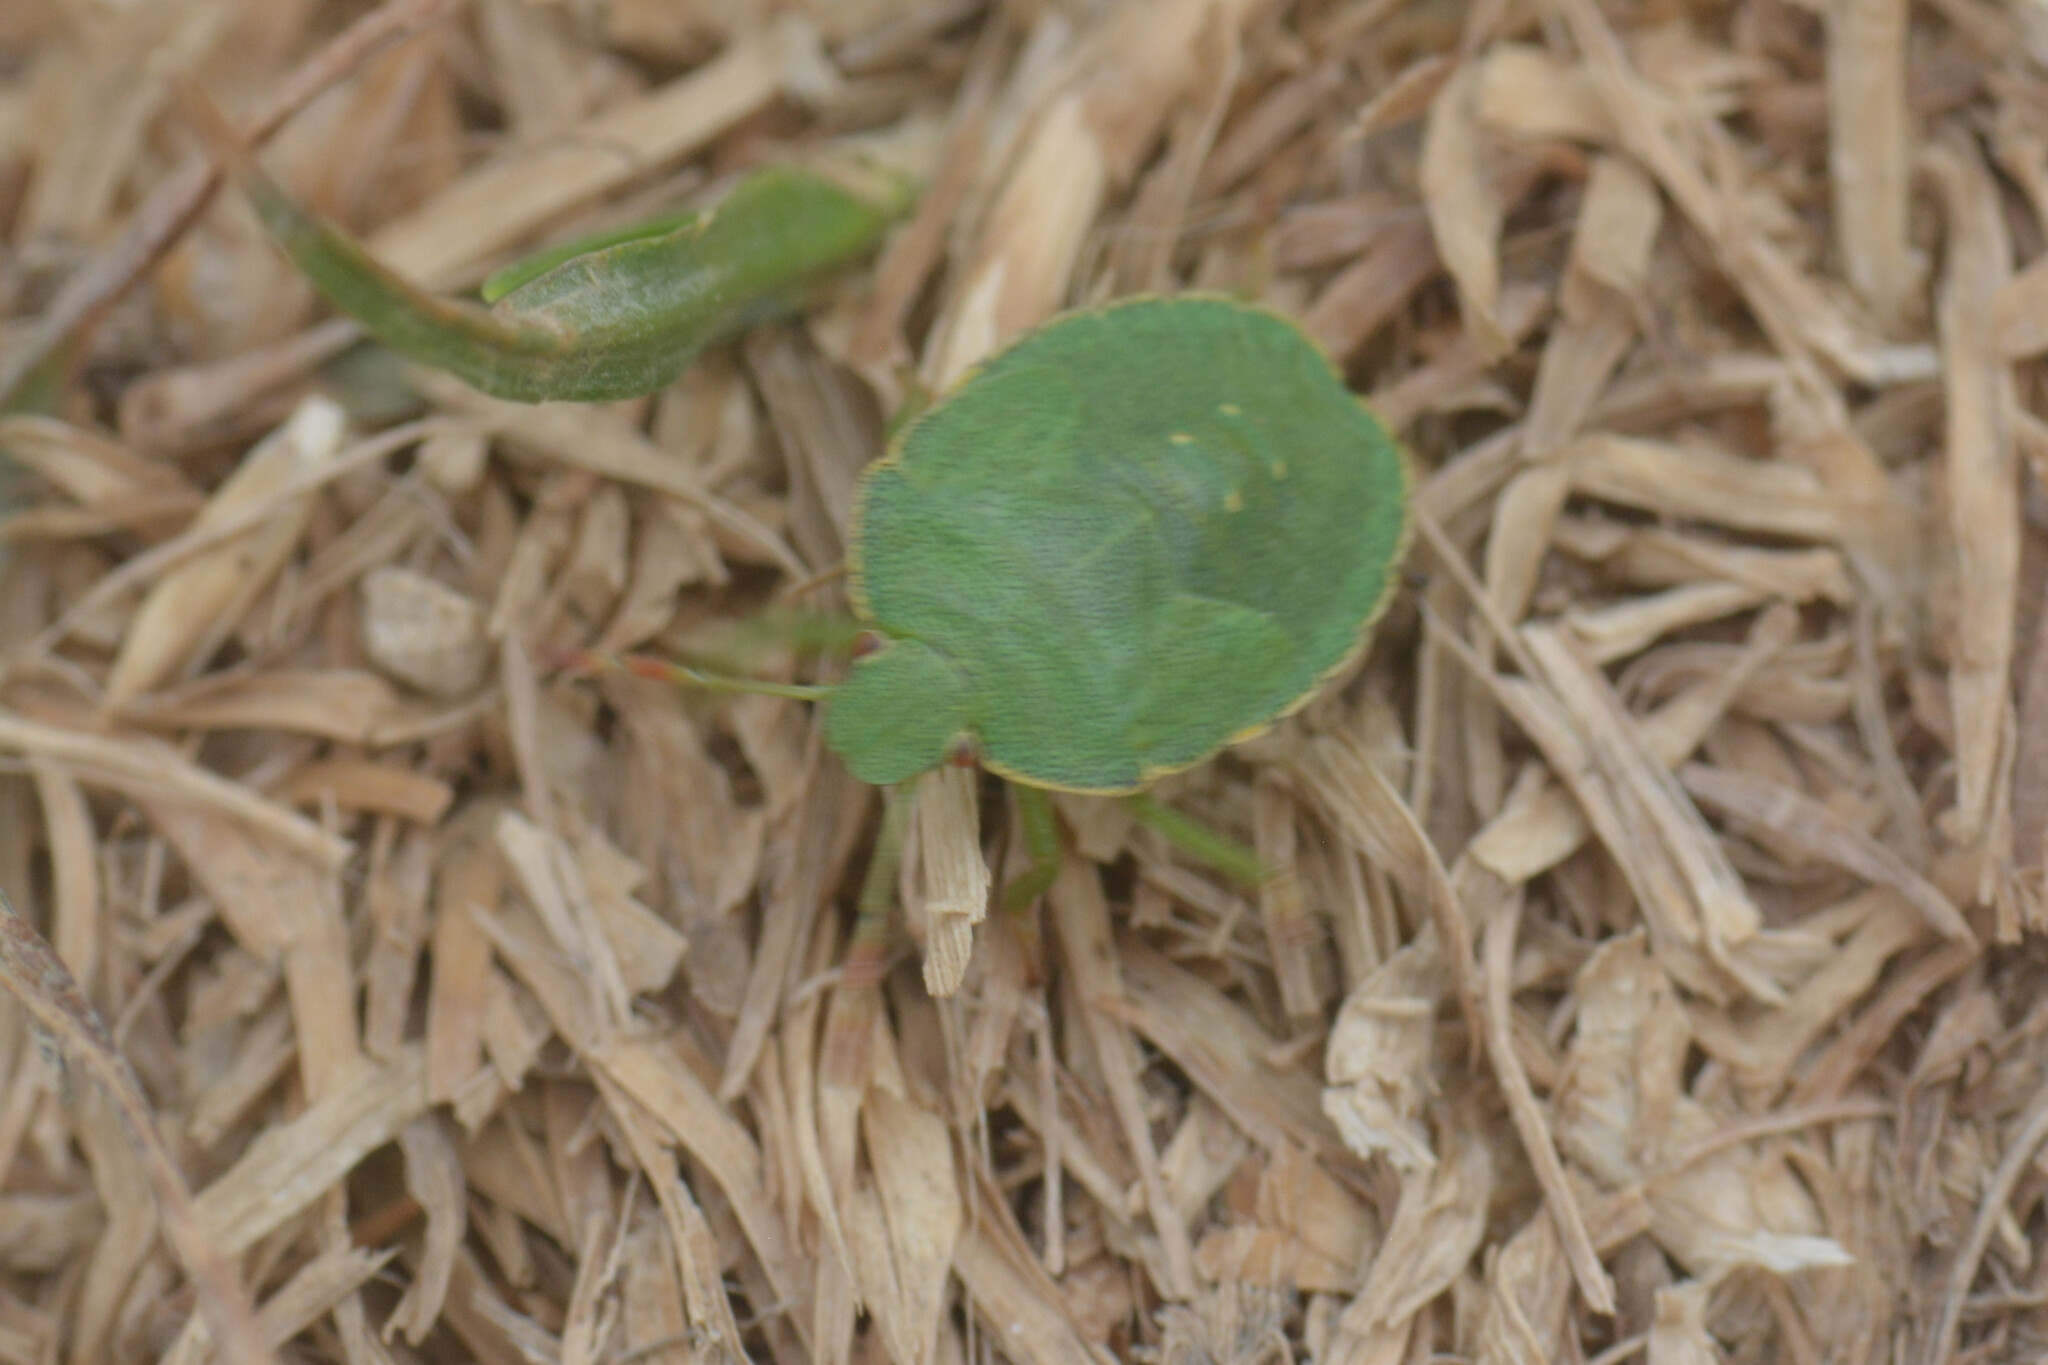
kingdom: Animalia
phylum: Arthropoda
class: Insecta
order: Hemiptera
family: Pentatomidae
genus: Palomena
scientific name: Palomena prasina
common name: Green shieldbug
